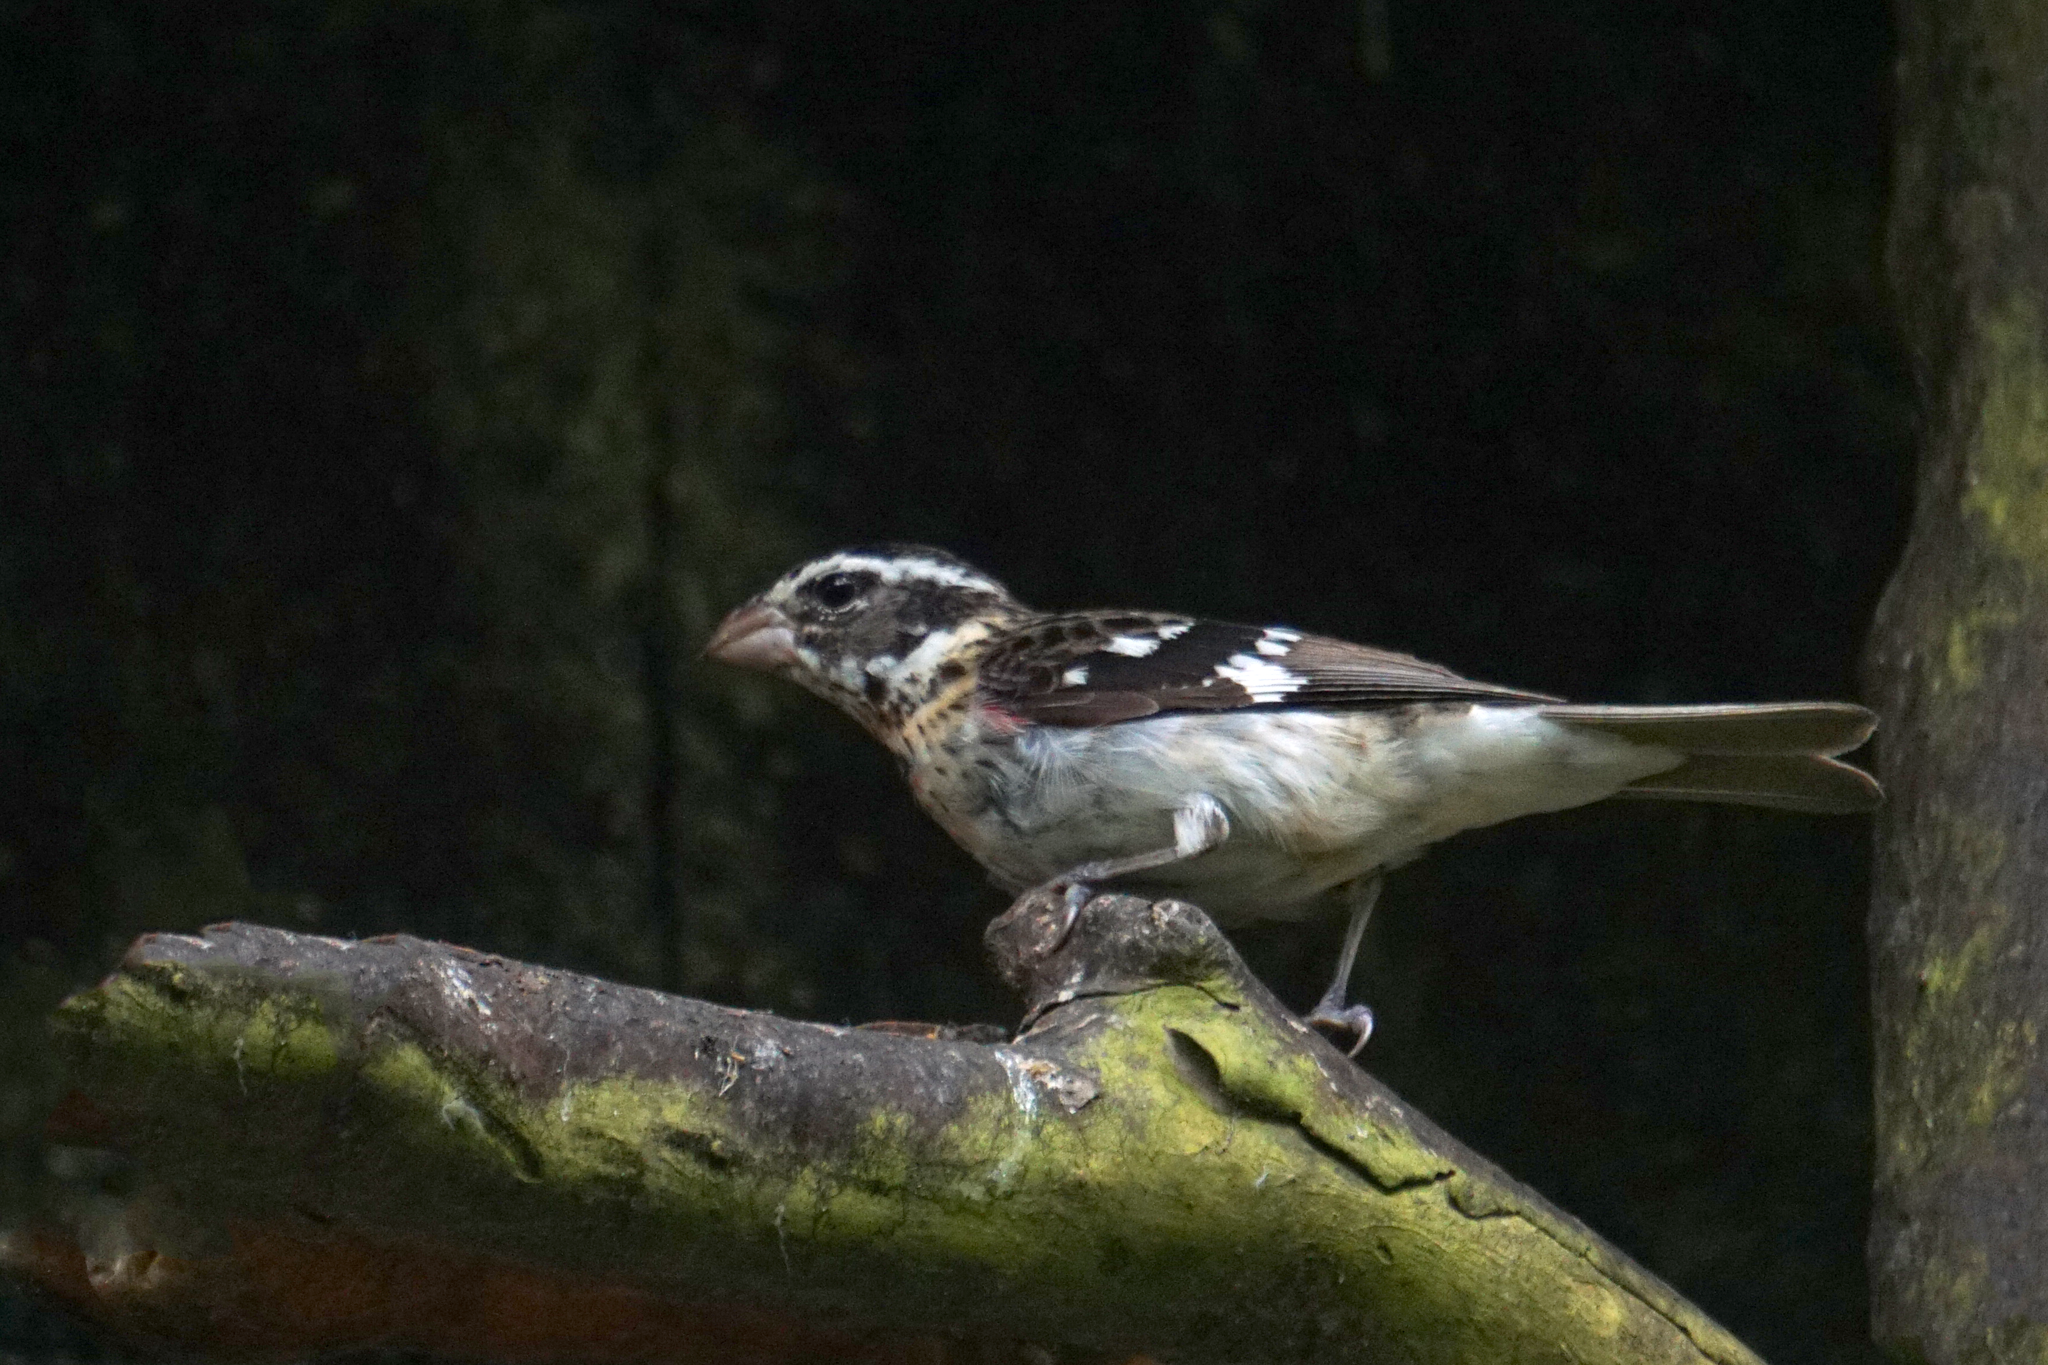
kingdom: Animalia
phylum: Chordata
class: Aves
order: Passeriformes
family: Cardinalidae
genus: Pheucticus
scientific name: Pheucticus ludovicianus
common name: Rose-breasted grosbeak
